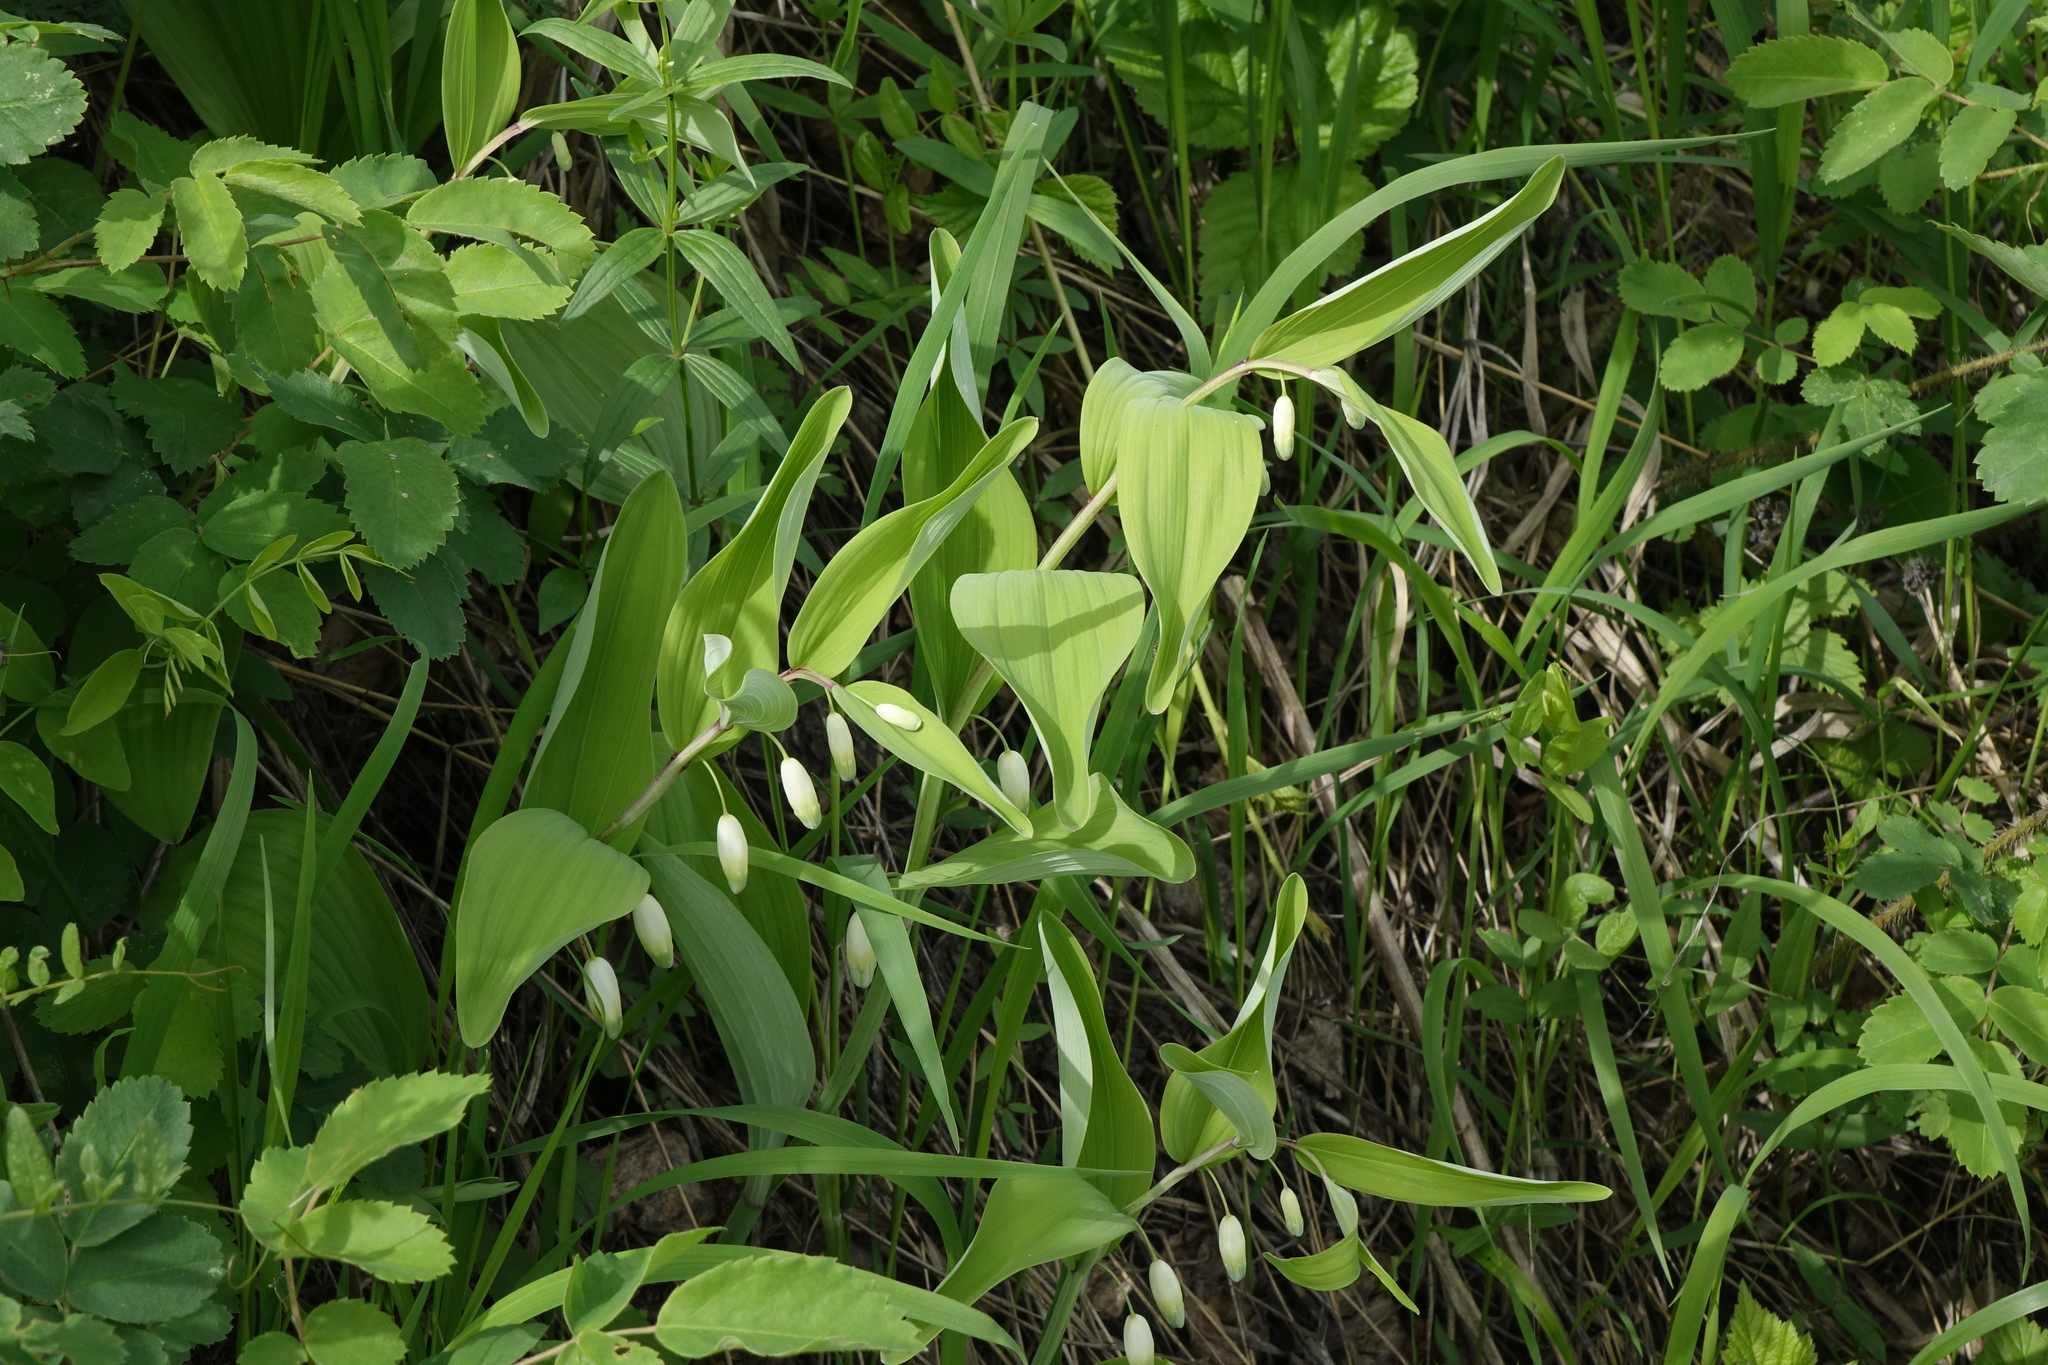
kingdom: Plantae
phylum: Tracheophyta
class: Liliopsida
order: Asparagales
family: Asparagaceae
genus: Polygonatum
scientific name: Polygonatum odoratum
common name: Angular solomon's-seal
